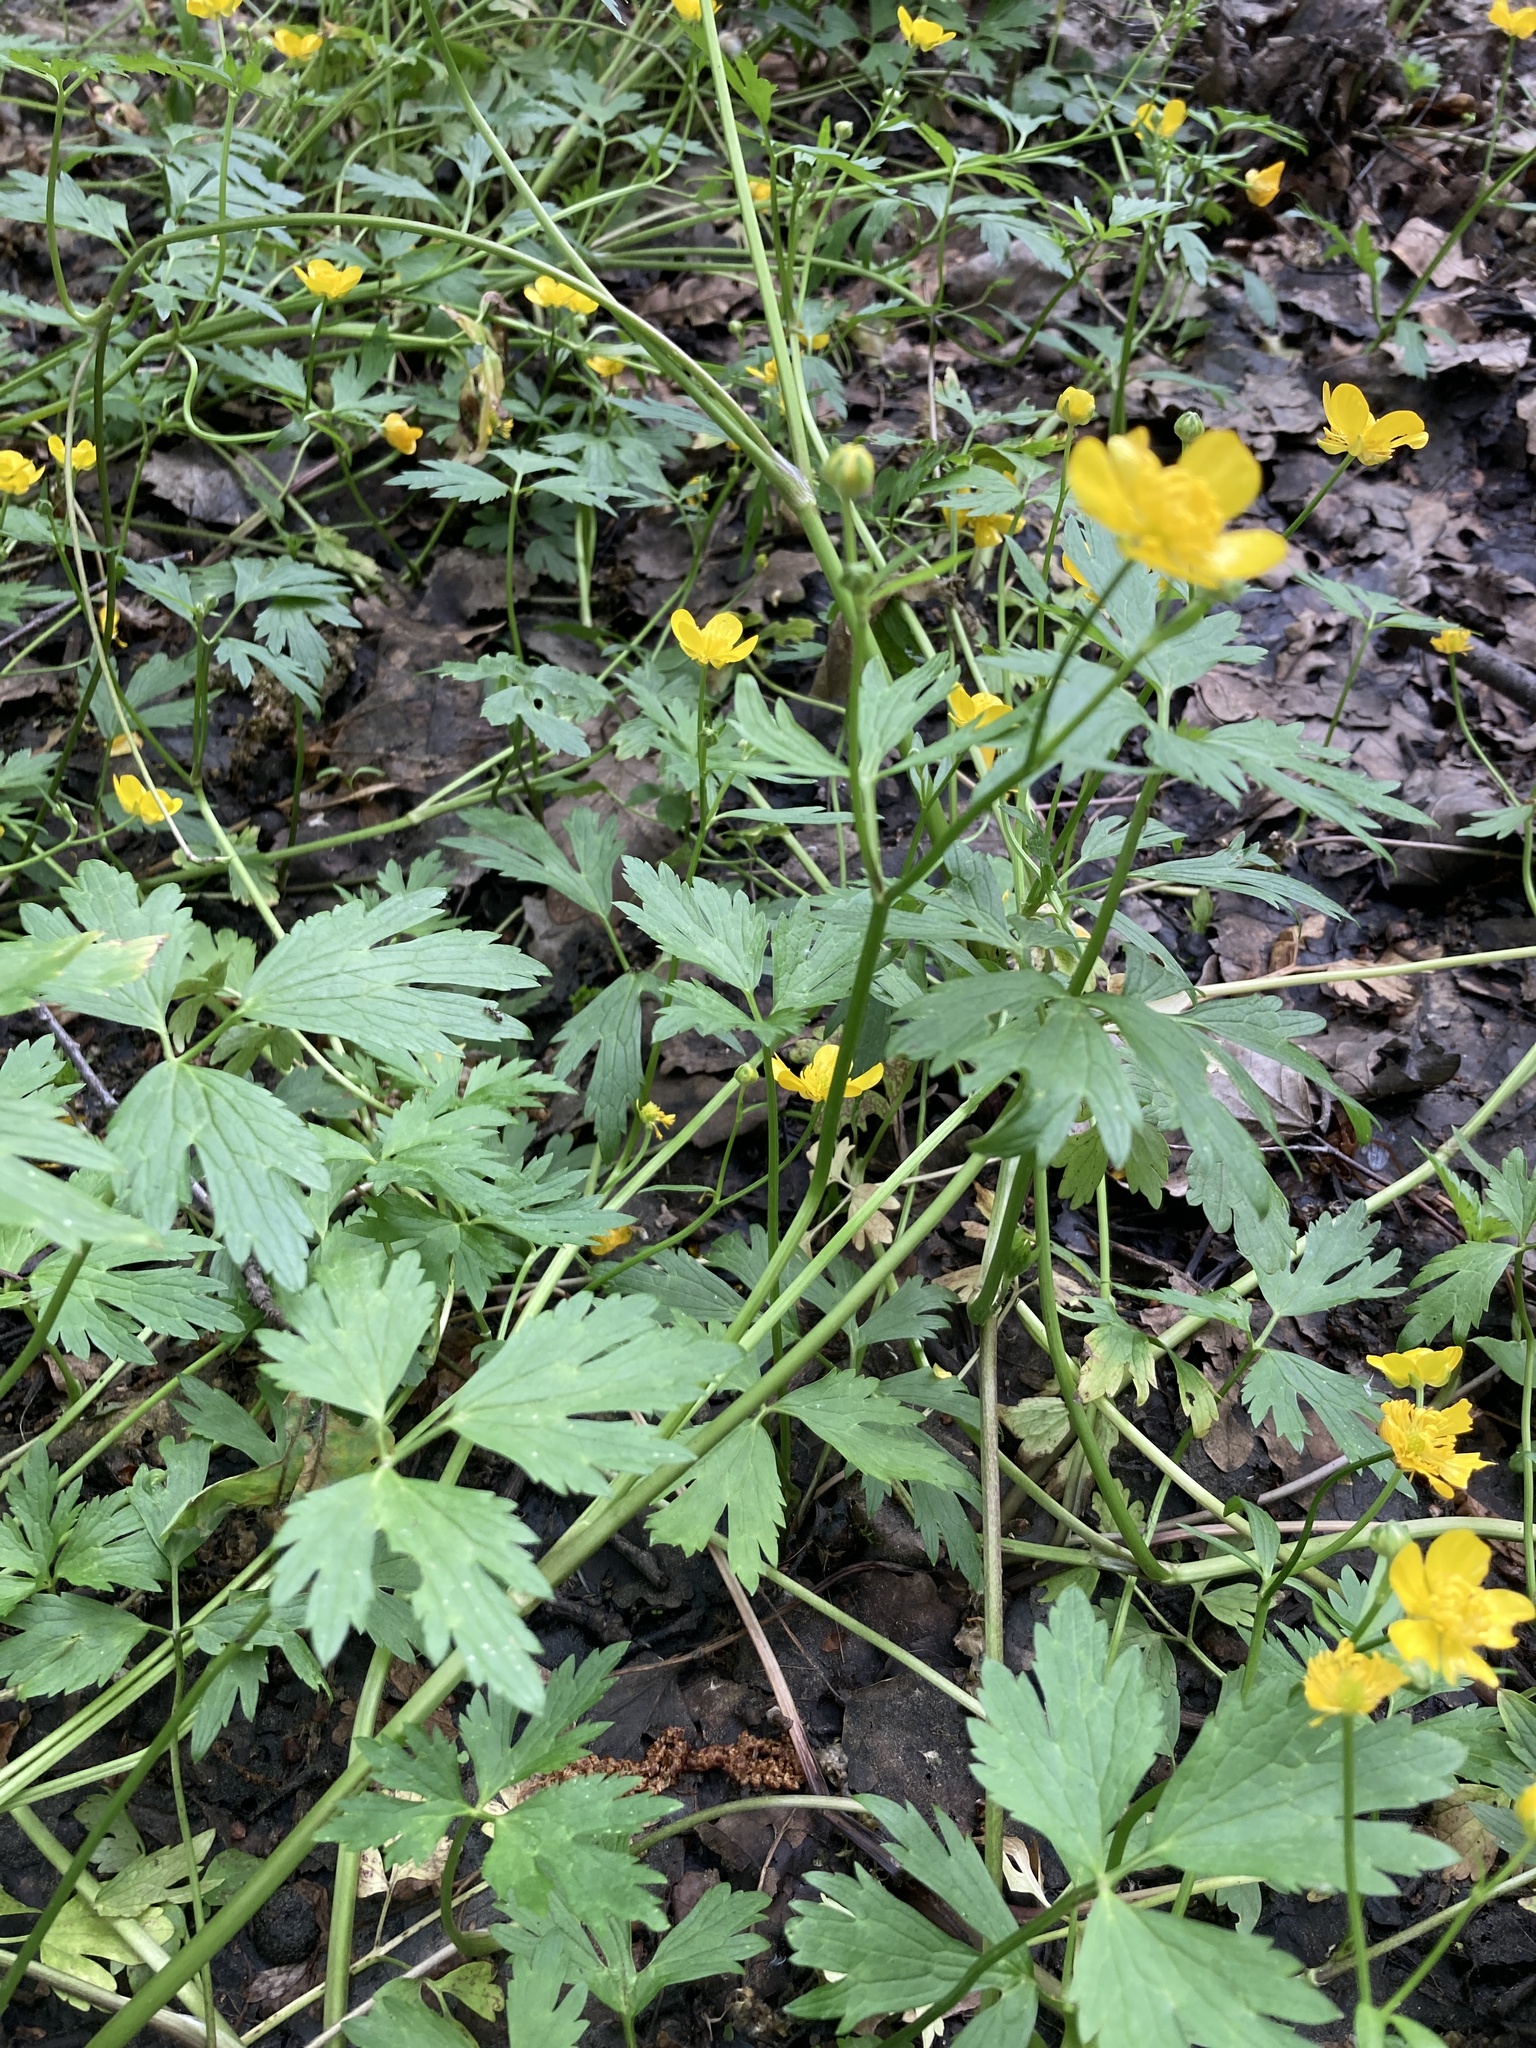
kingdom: Plantae
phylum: Tracheophyta
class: Magnoliopsida
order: Ranunculales
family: Ranunculaceae
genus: Ranunculus
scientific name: Ranunculus repens
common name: Creeping buttercup
